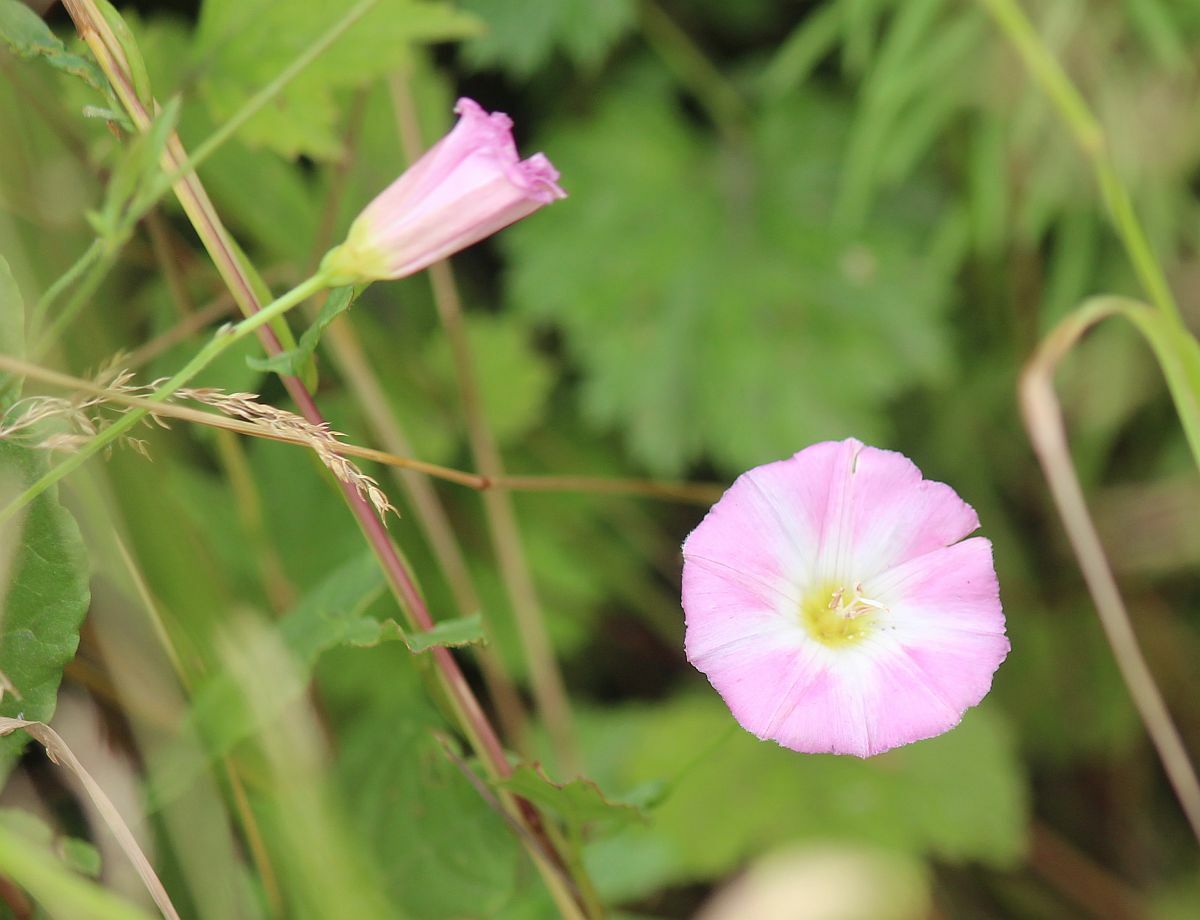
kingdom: Plantae
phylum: Tracheophyta
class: Magnoliopsida
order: Solanales
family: Convolvulaceae
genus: Convolvulus
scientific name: Convolvulus arvensis
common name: Field bindweed
